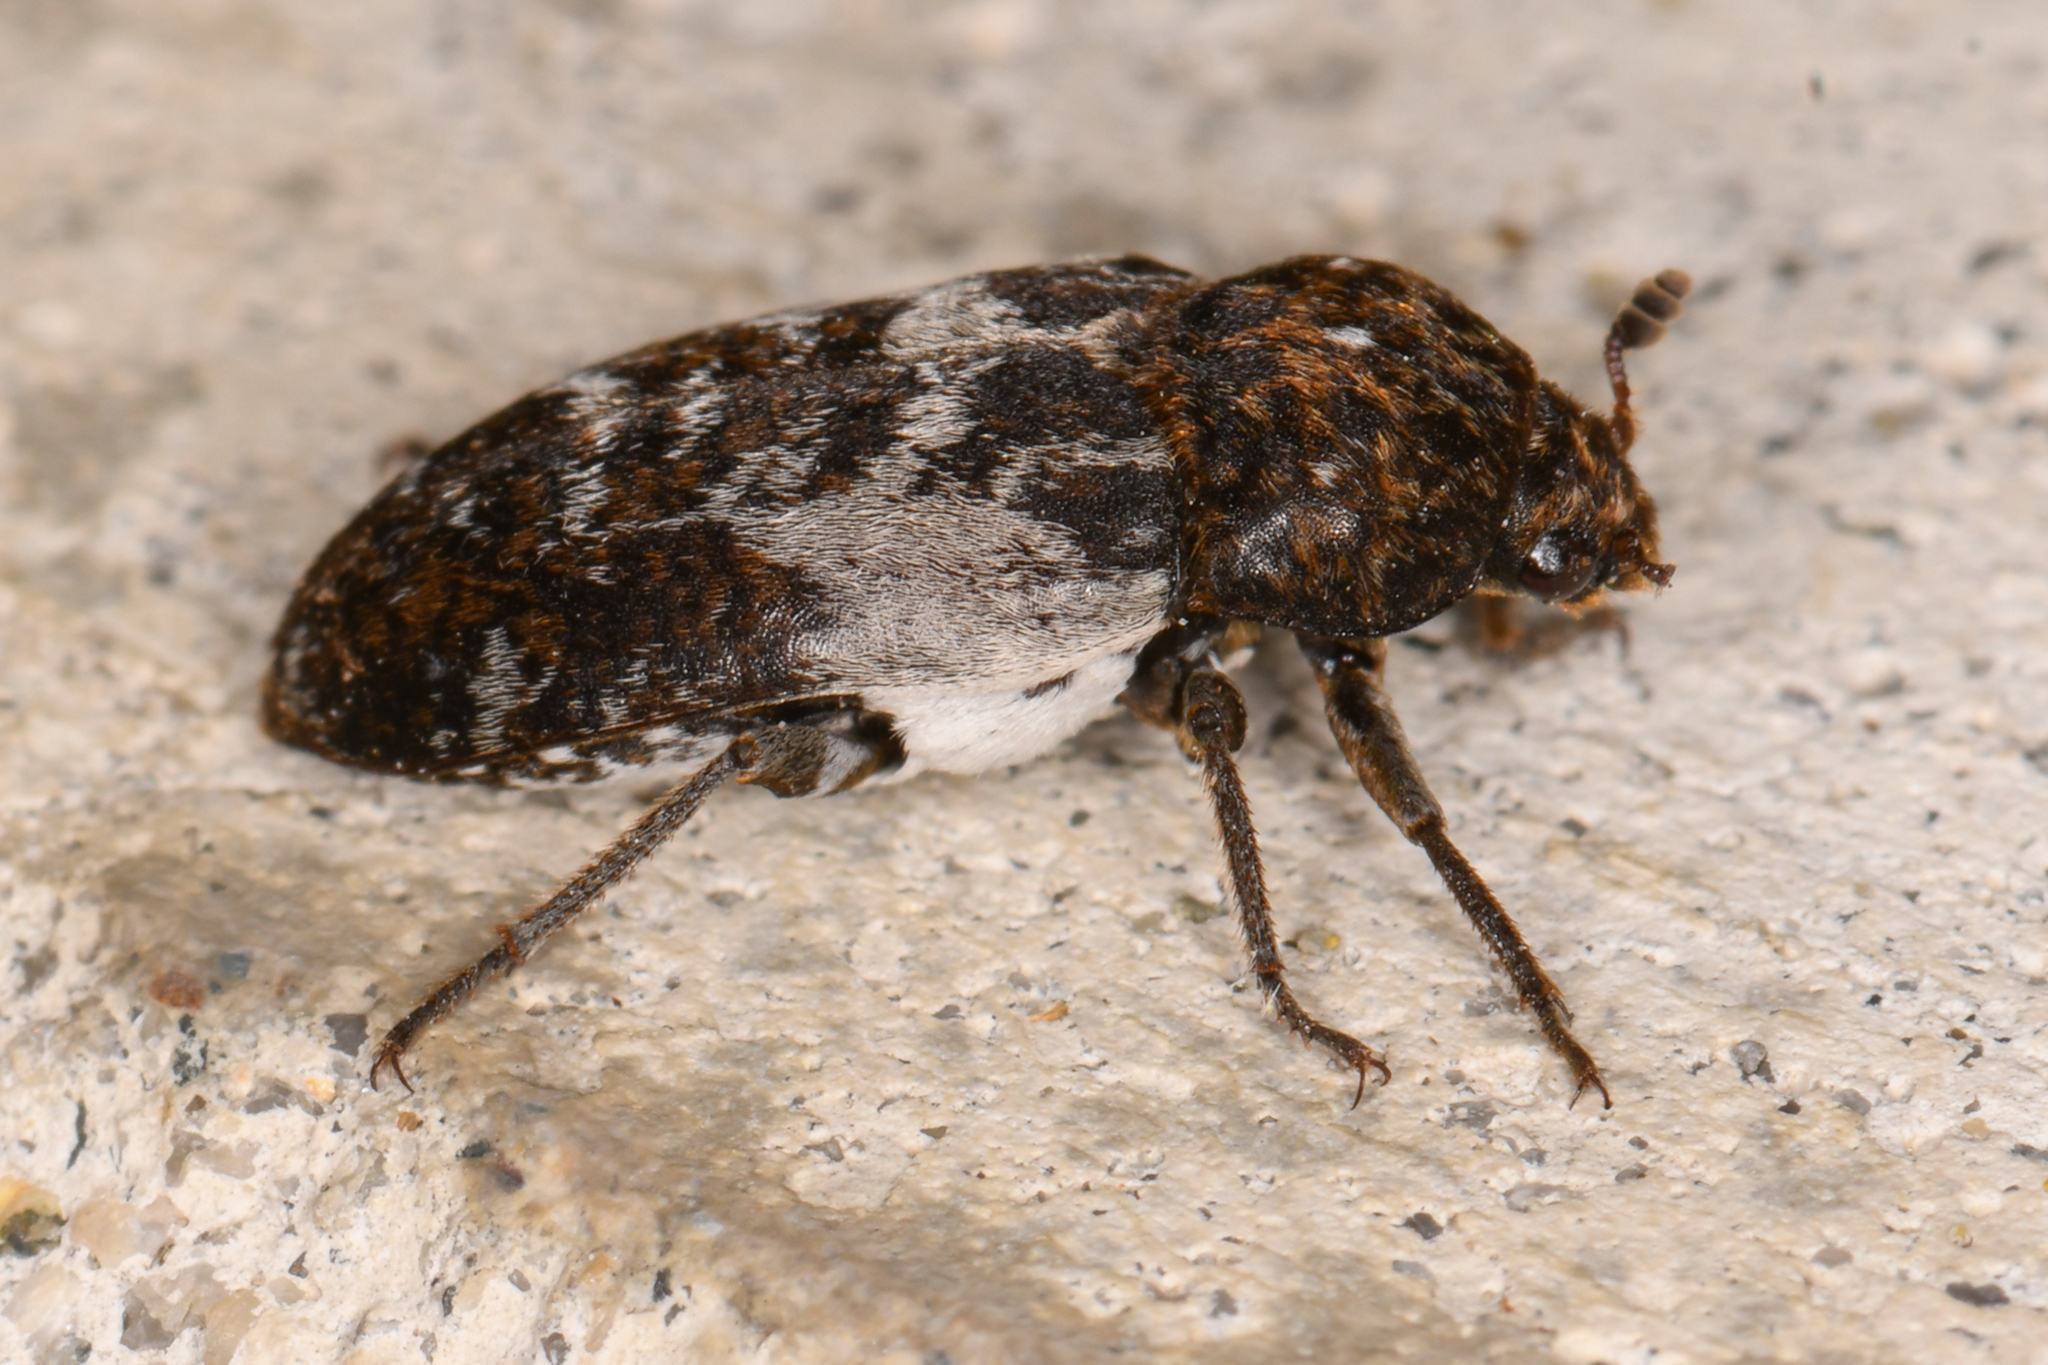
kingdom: Animalia
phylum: Arthropoda
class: Insecta
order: Coleoptera
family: Dermestidae
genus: Dermestes
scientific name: Dermestes marmoratus
